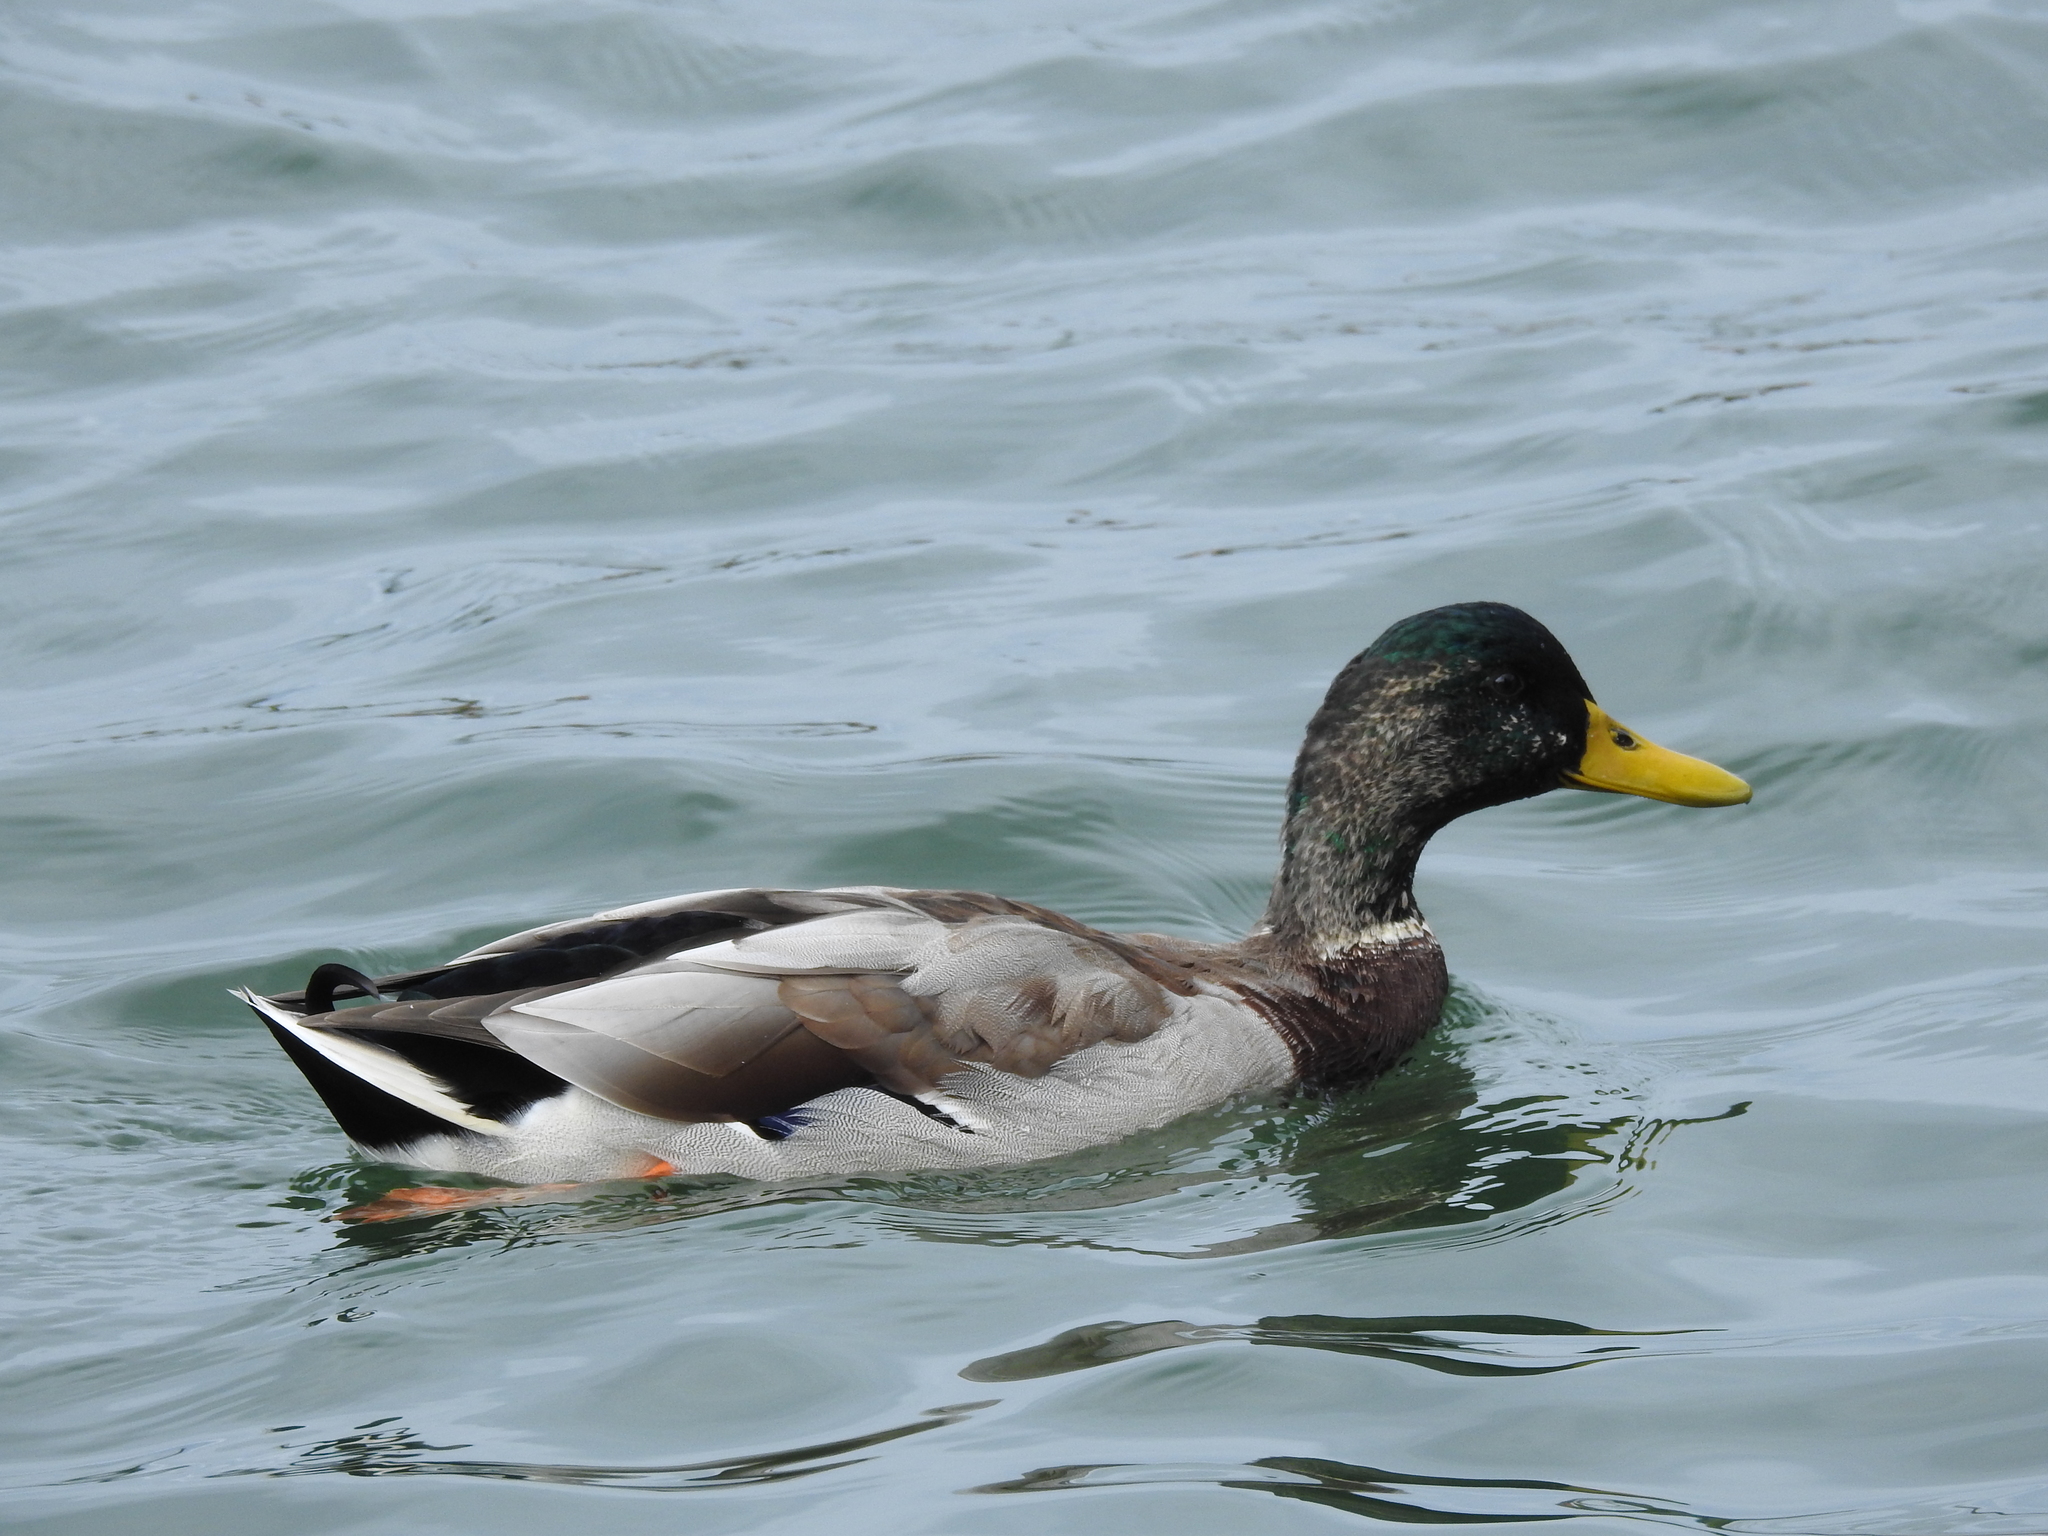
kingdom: Animalia
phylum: Chordata
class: Aves
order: Anseriformes
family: Anatidae
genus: Anas
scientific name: Anas platyrhynchos
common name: Mallard
